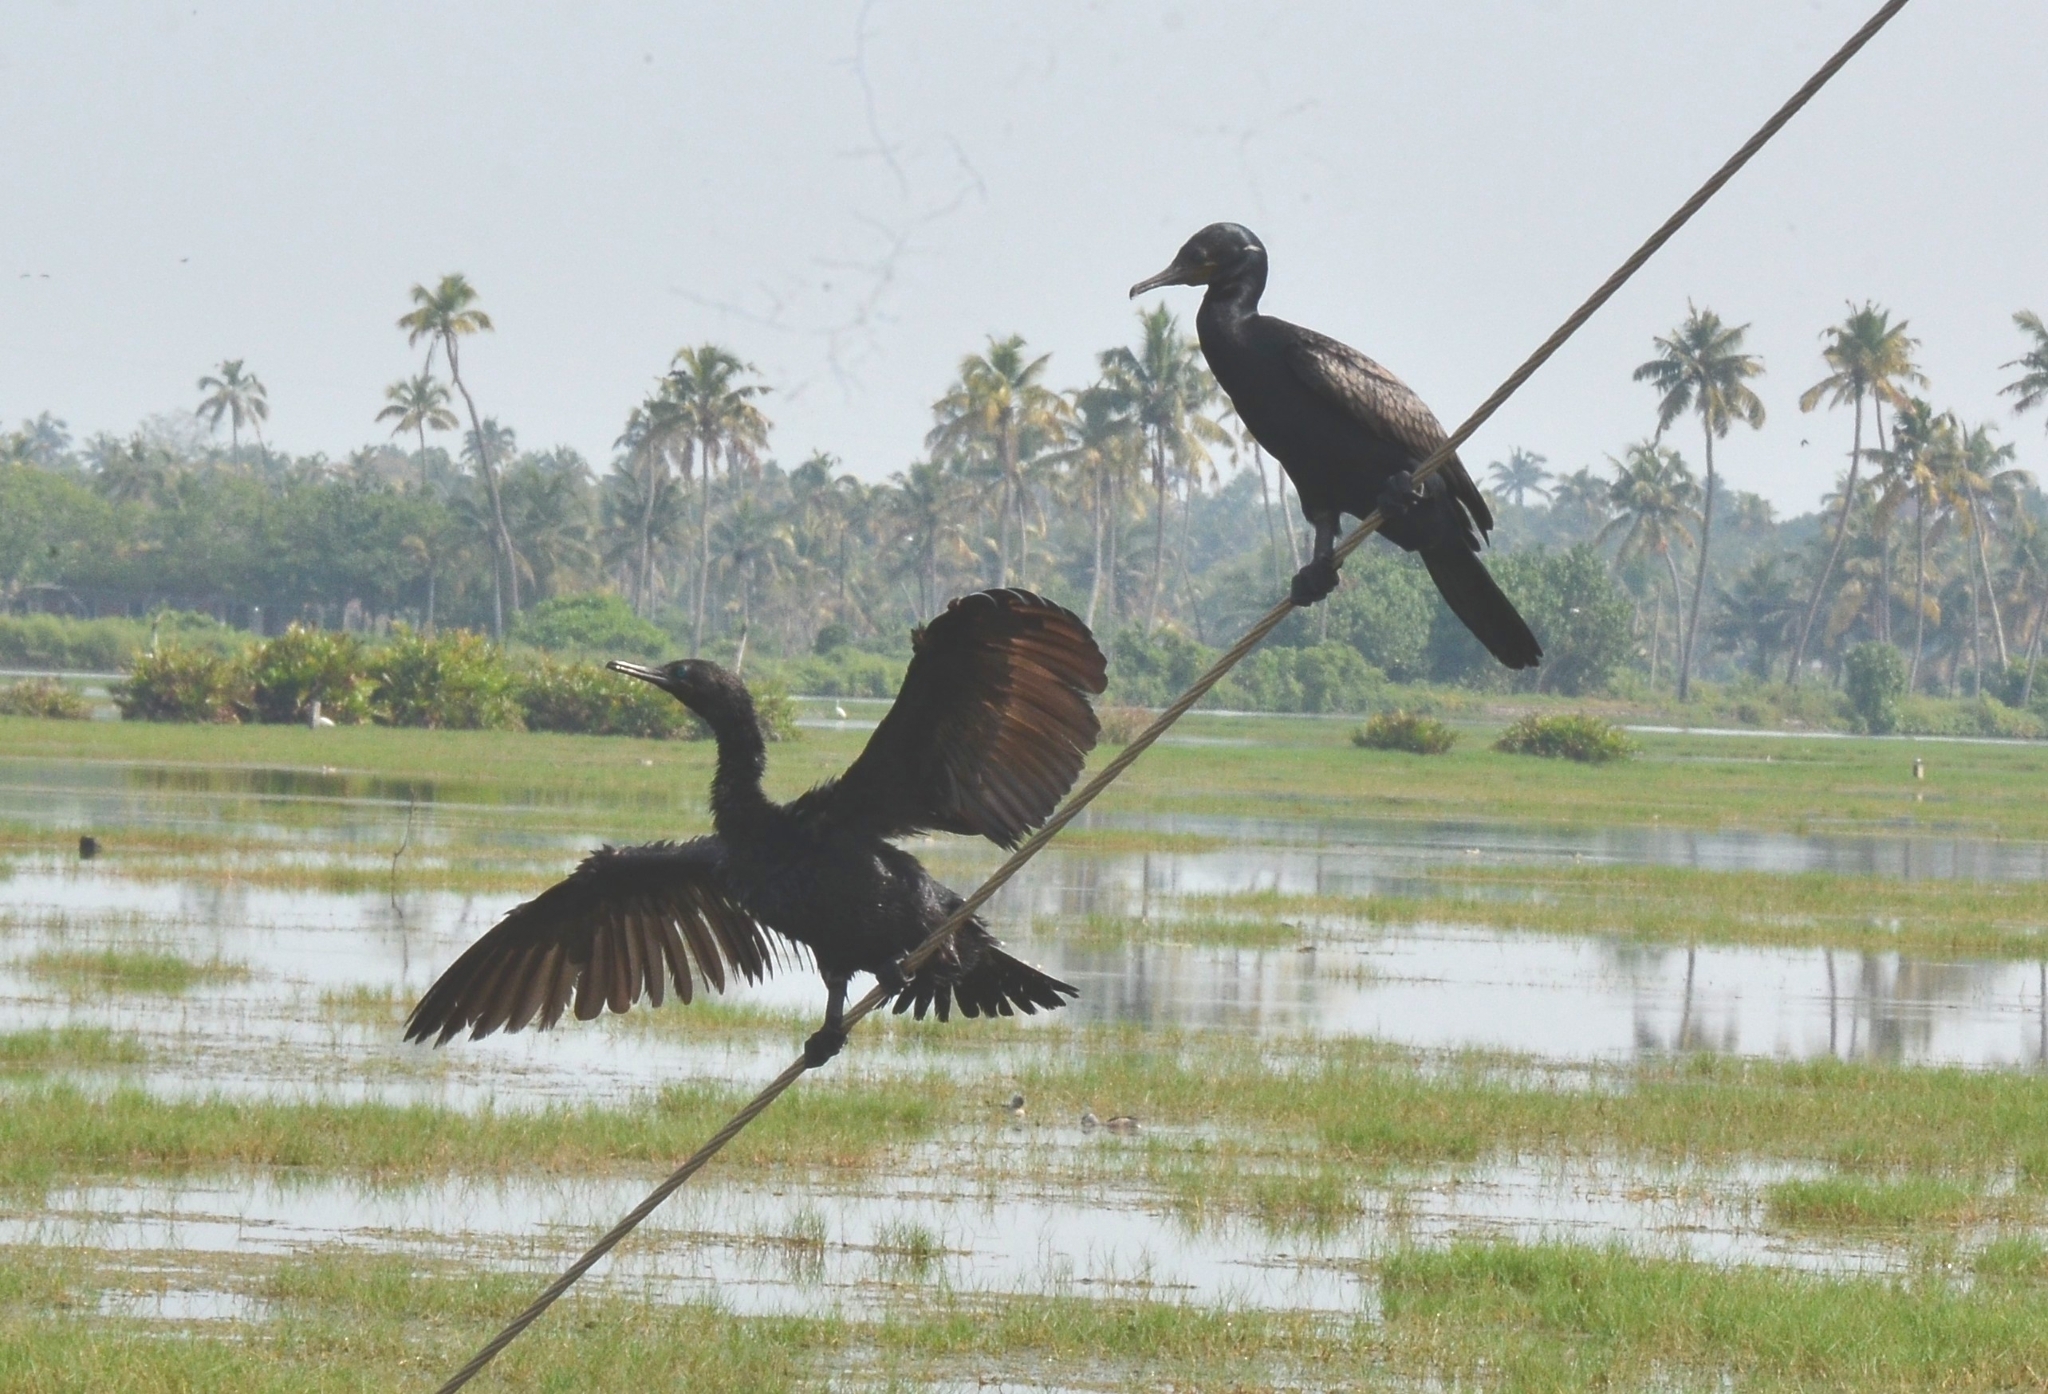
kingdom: Animalia
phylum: Chordata
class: Aves
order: Suliformes
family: Phalacrocoracidae
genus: Phalacrocorax
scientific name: Phalacrocorax fuscicollis
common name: Indian cormorant
